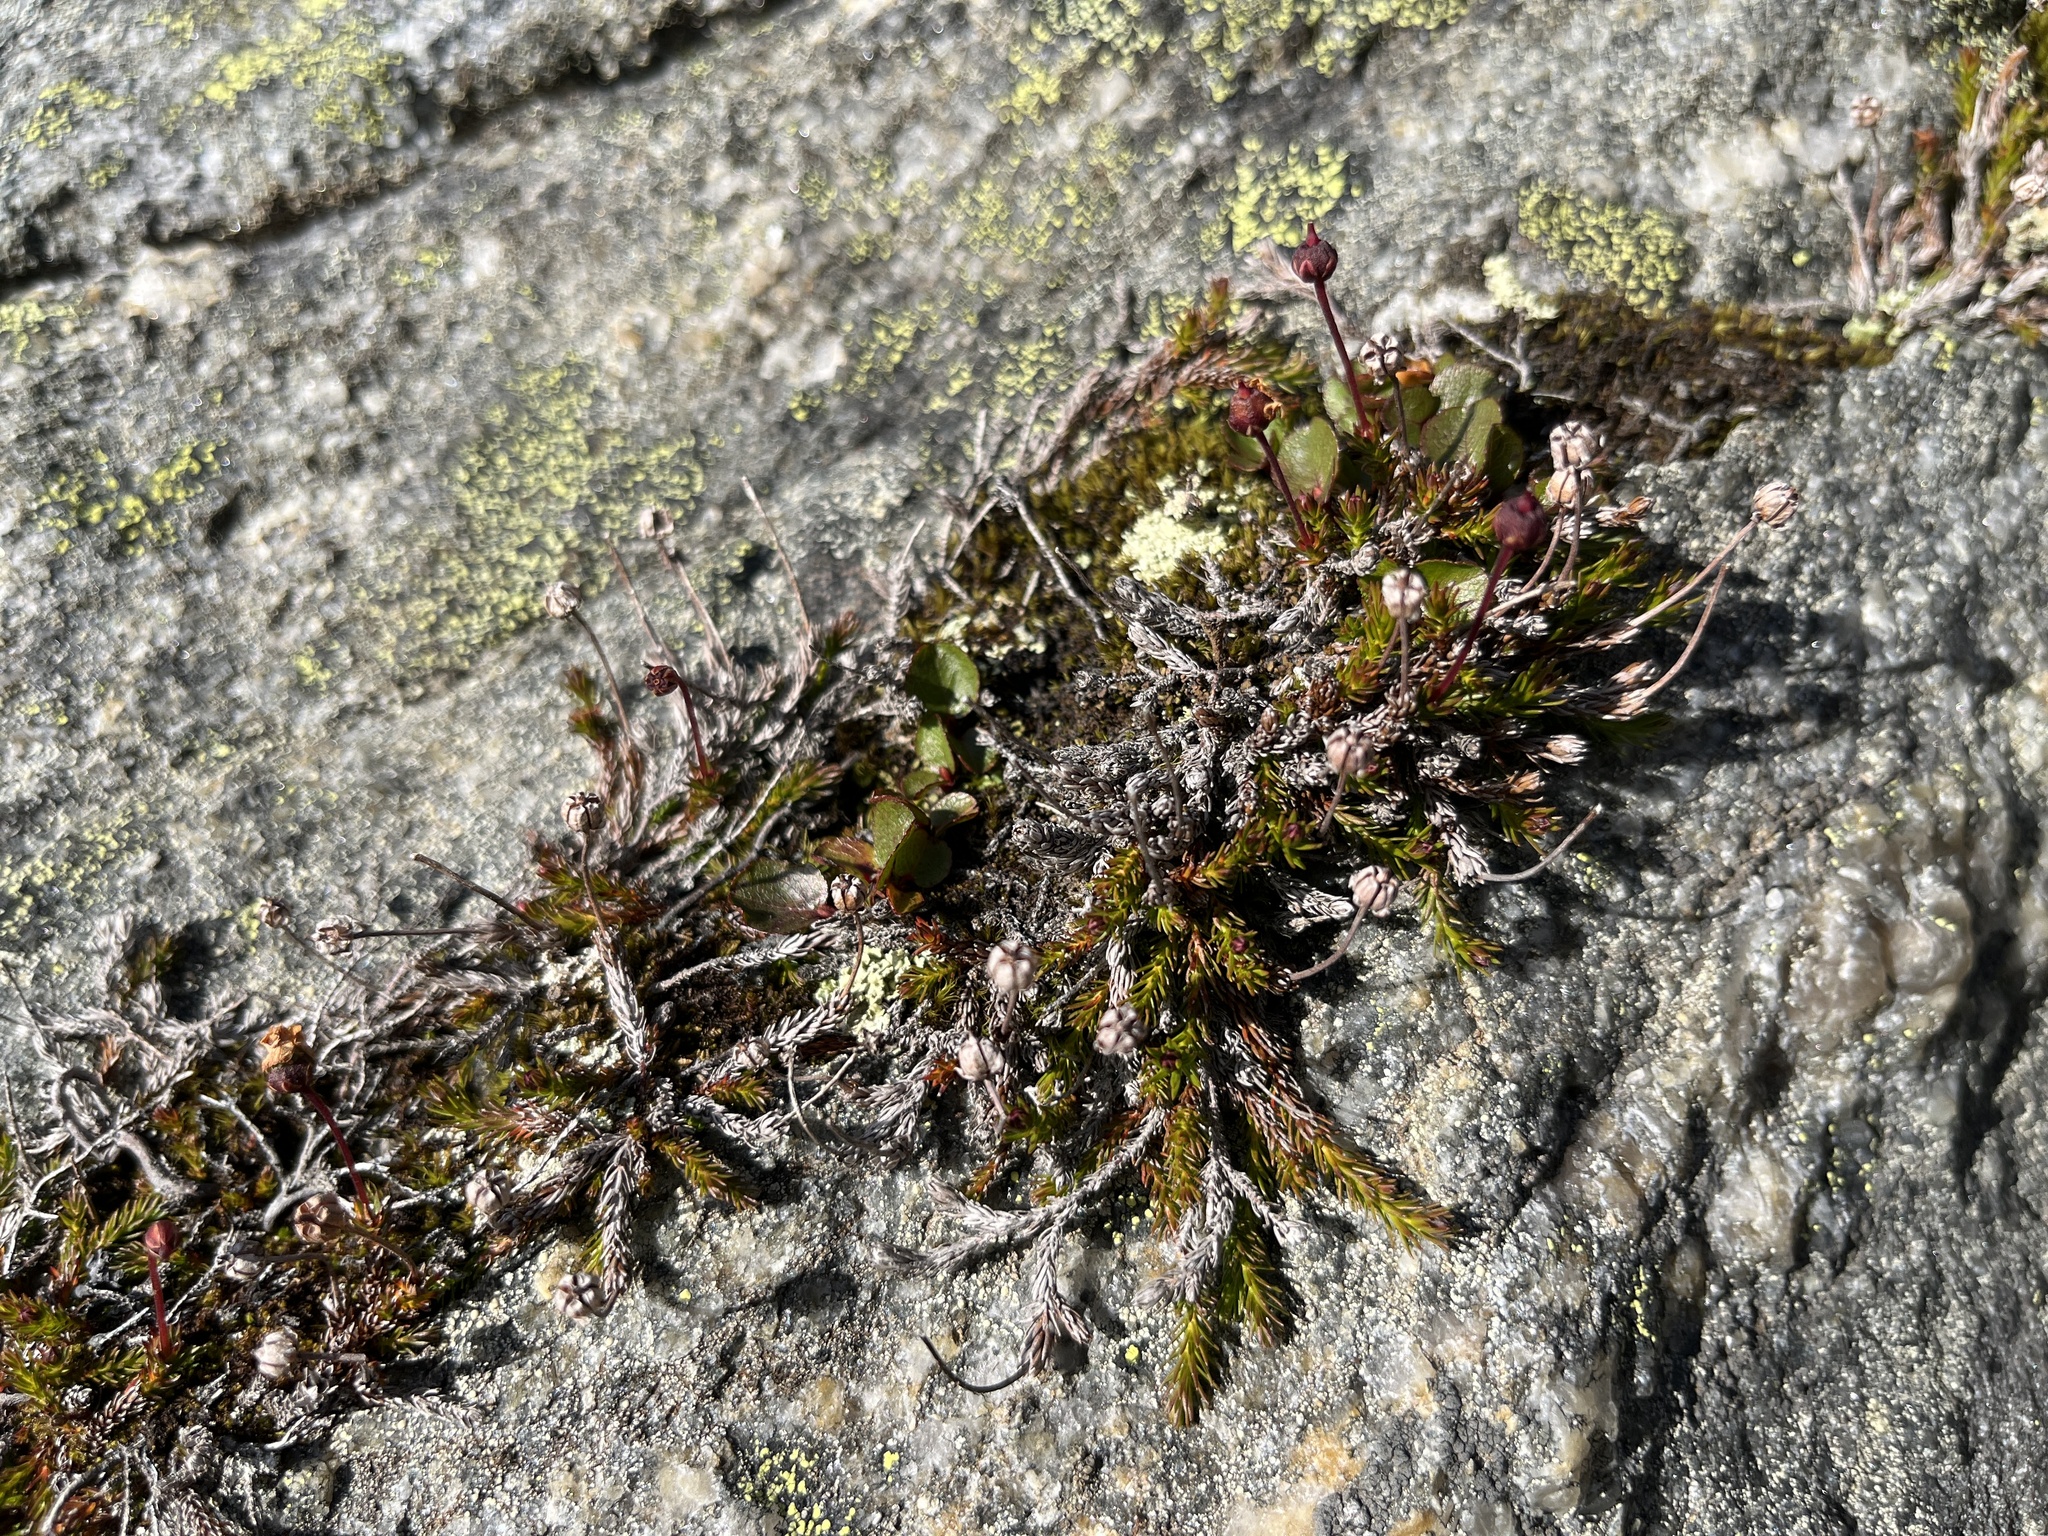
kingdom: Plantae
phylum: Tracheophyta
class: Magnoliopsida
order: Ericales
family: Ericaceae
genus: Harrimanella
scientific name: Harrimanella hypnoides
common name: Moss bell heather
